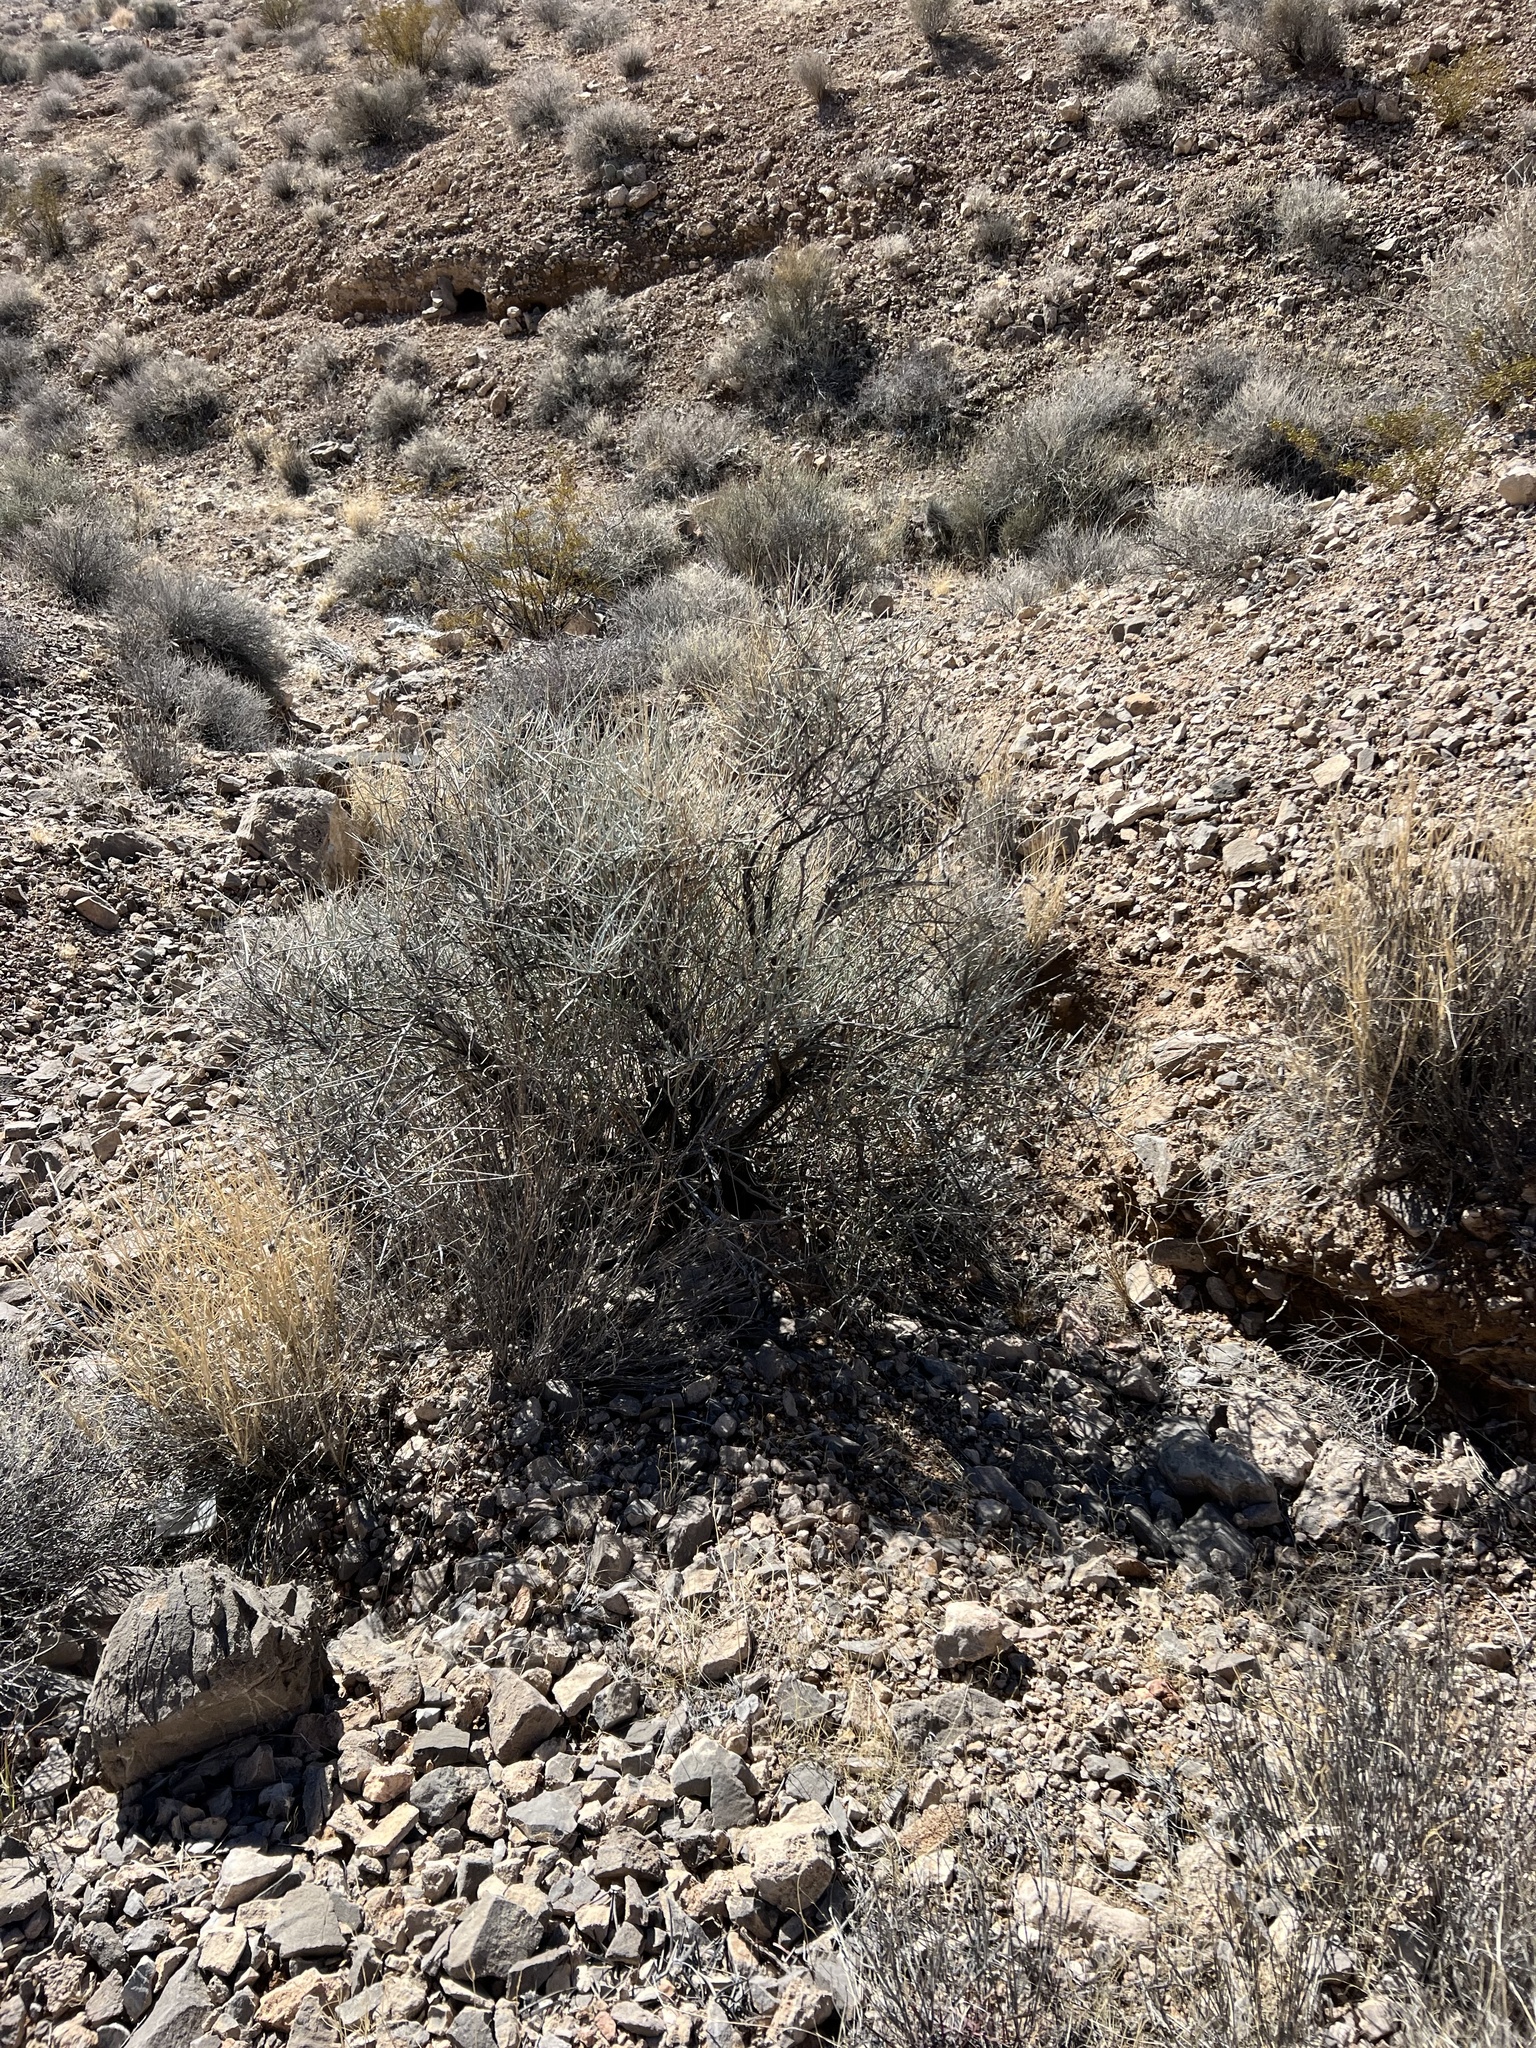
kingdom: Plantae
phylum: Tracheophyta
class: Gnetopsida
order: Ephedrales
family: Ephedraceae
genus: Ephedra
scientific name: Ephedra nevadensis
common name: Gray ephedra
